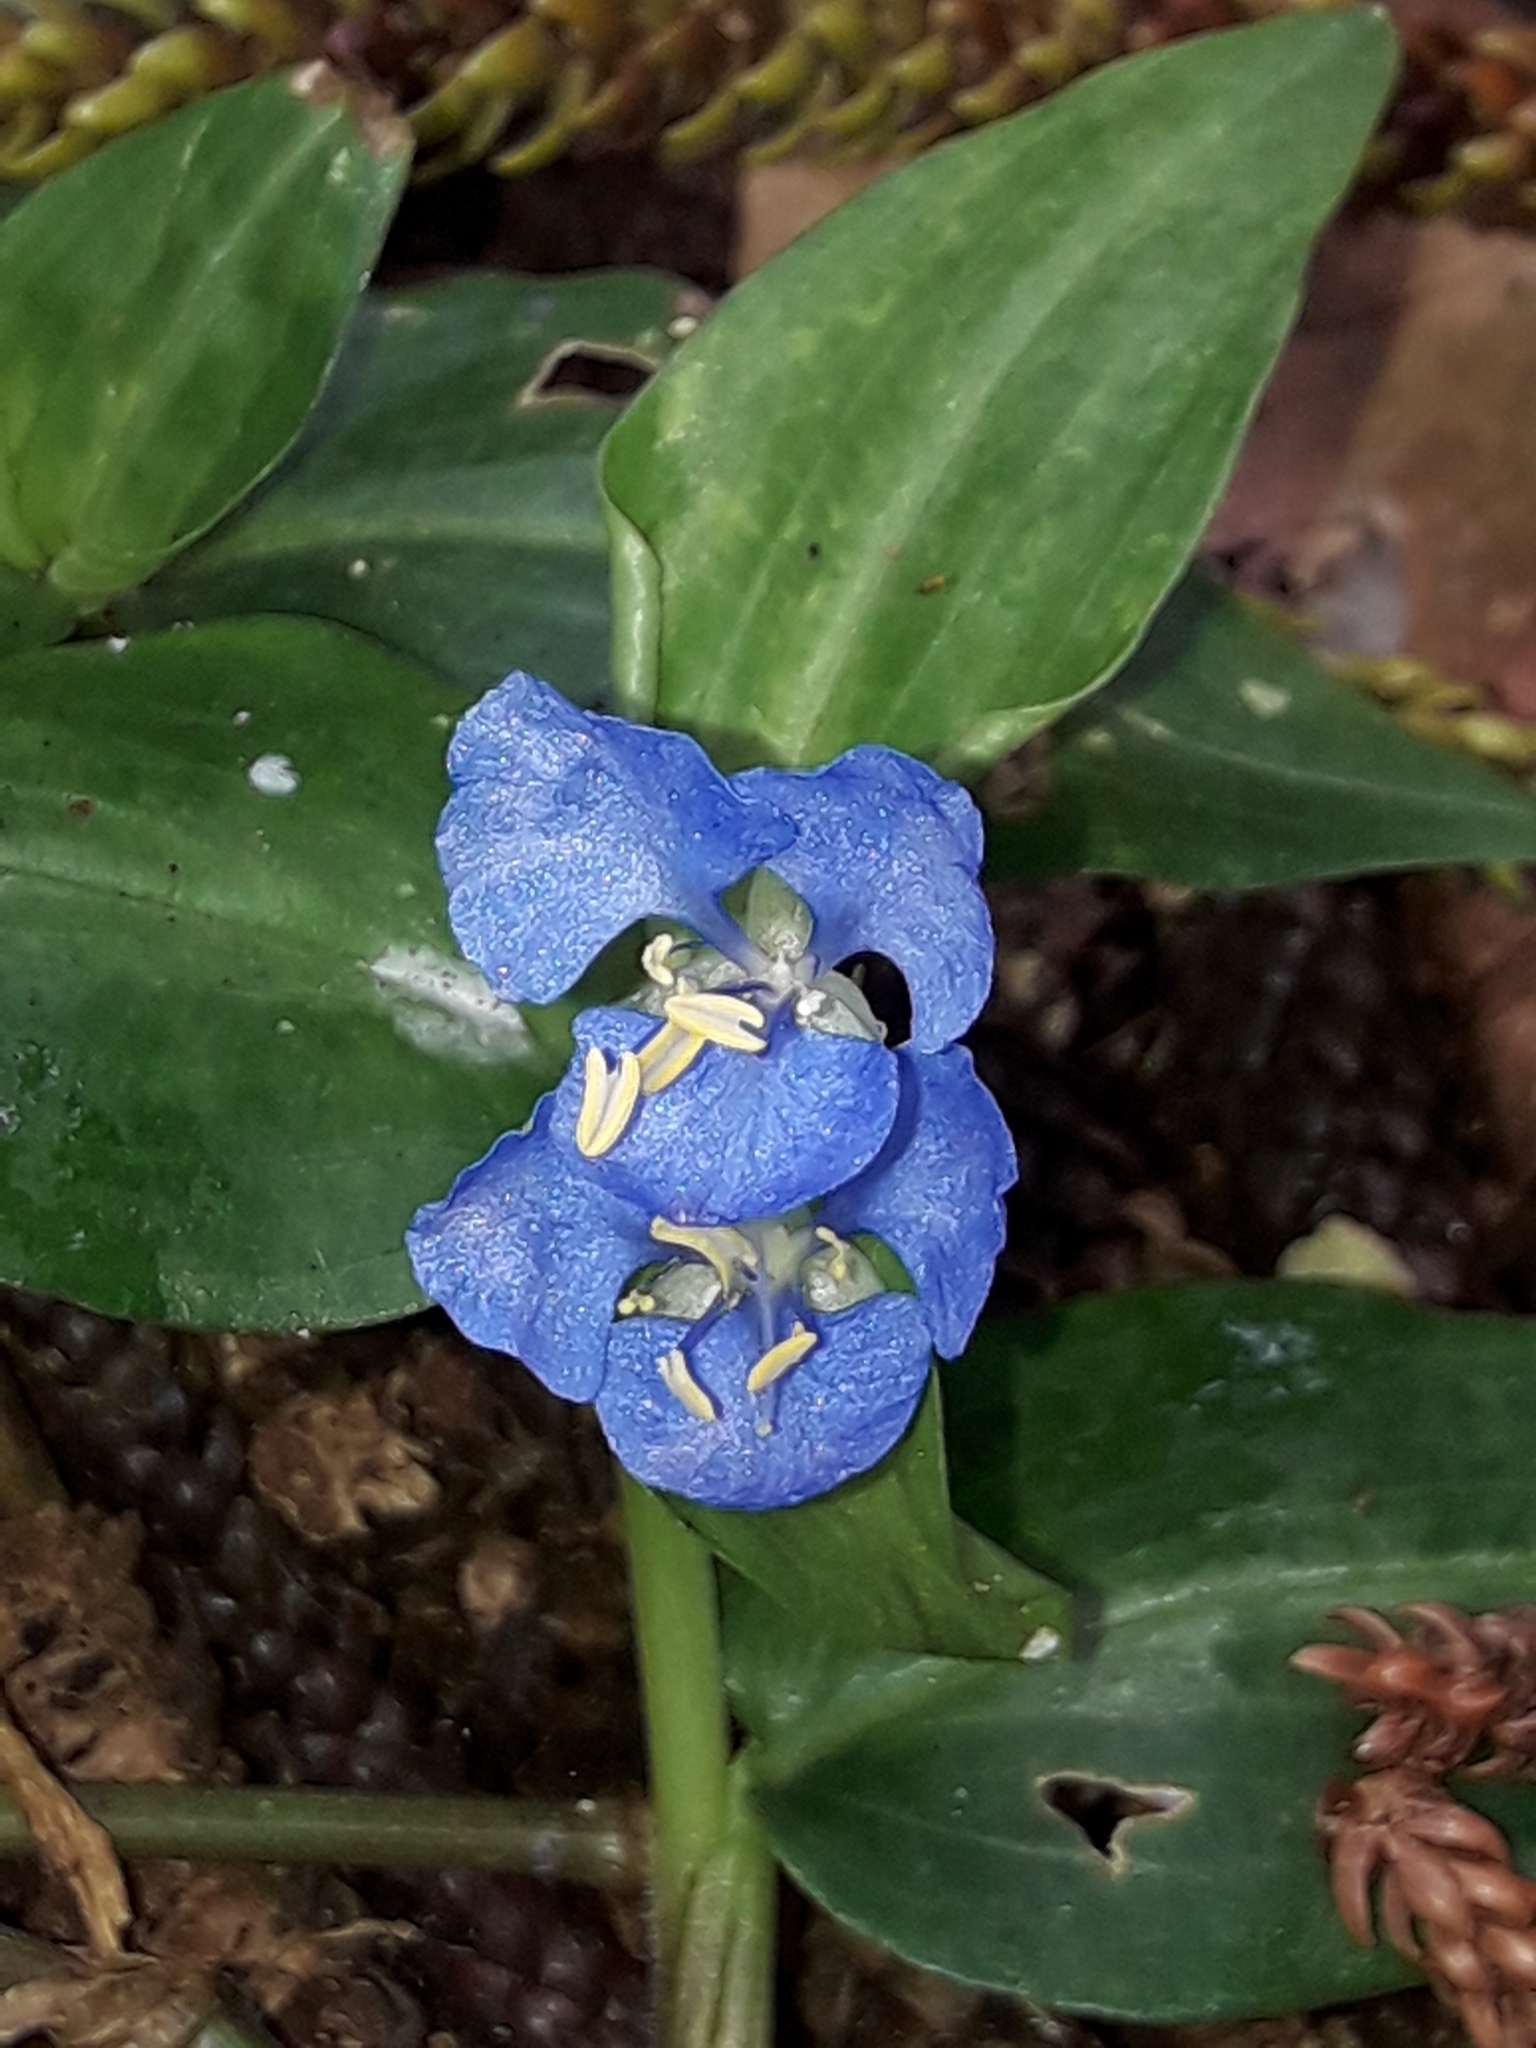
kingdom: Plantae
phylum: Tracheophyta
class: Liliopsida
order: Commelinales
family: Commelinaceae
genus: Commelina
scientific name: Commelina cyanea
